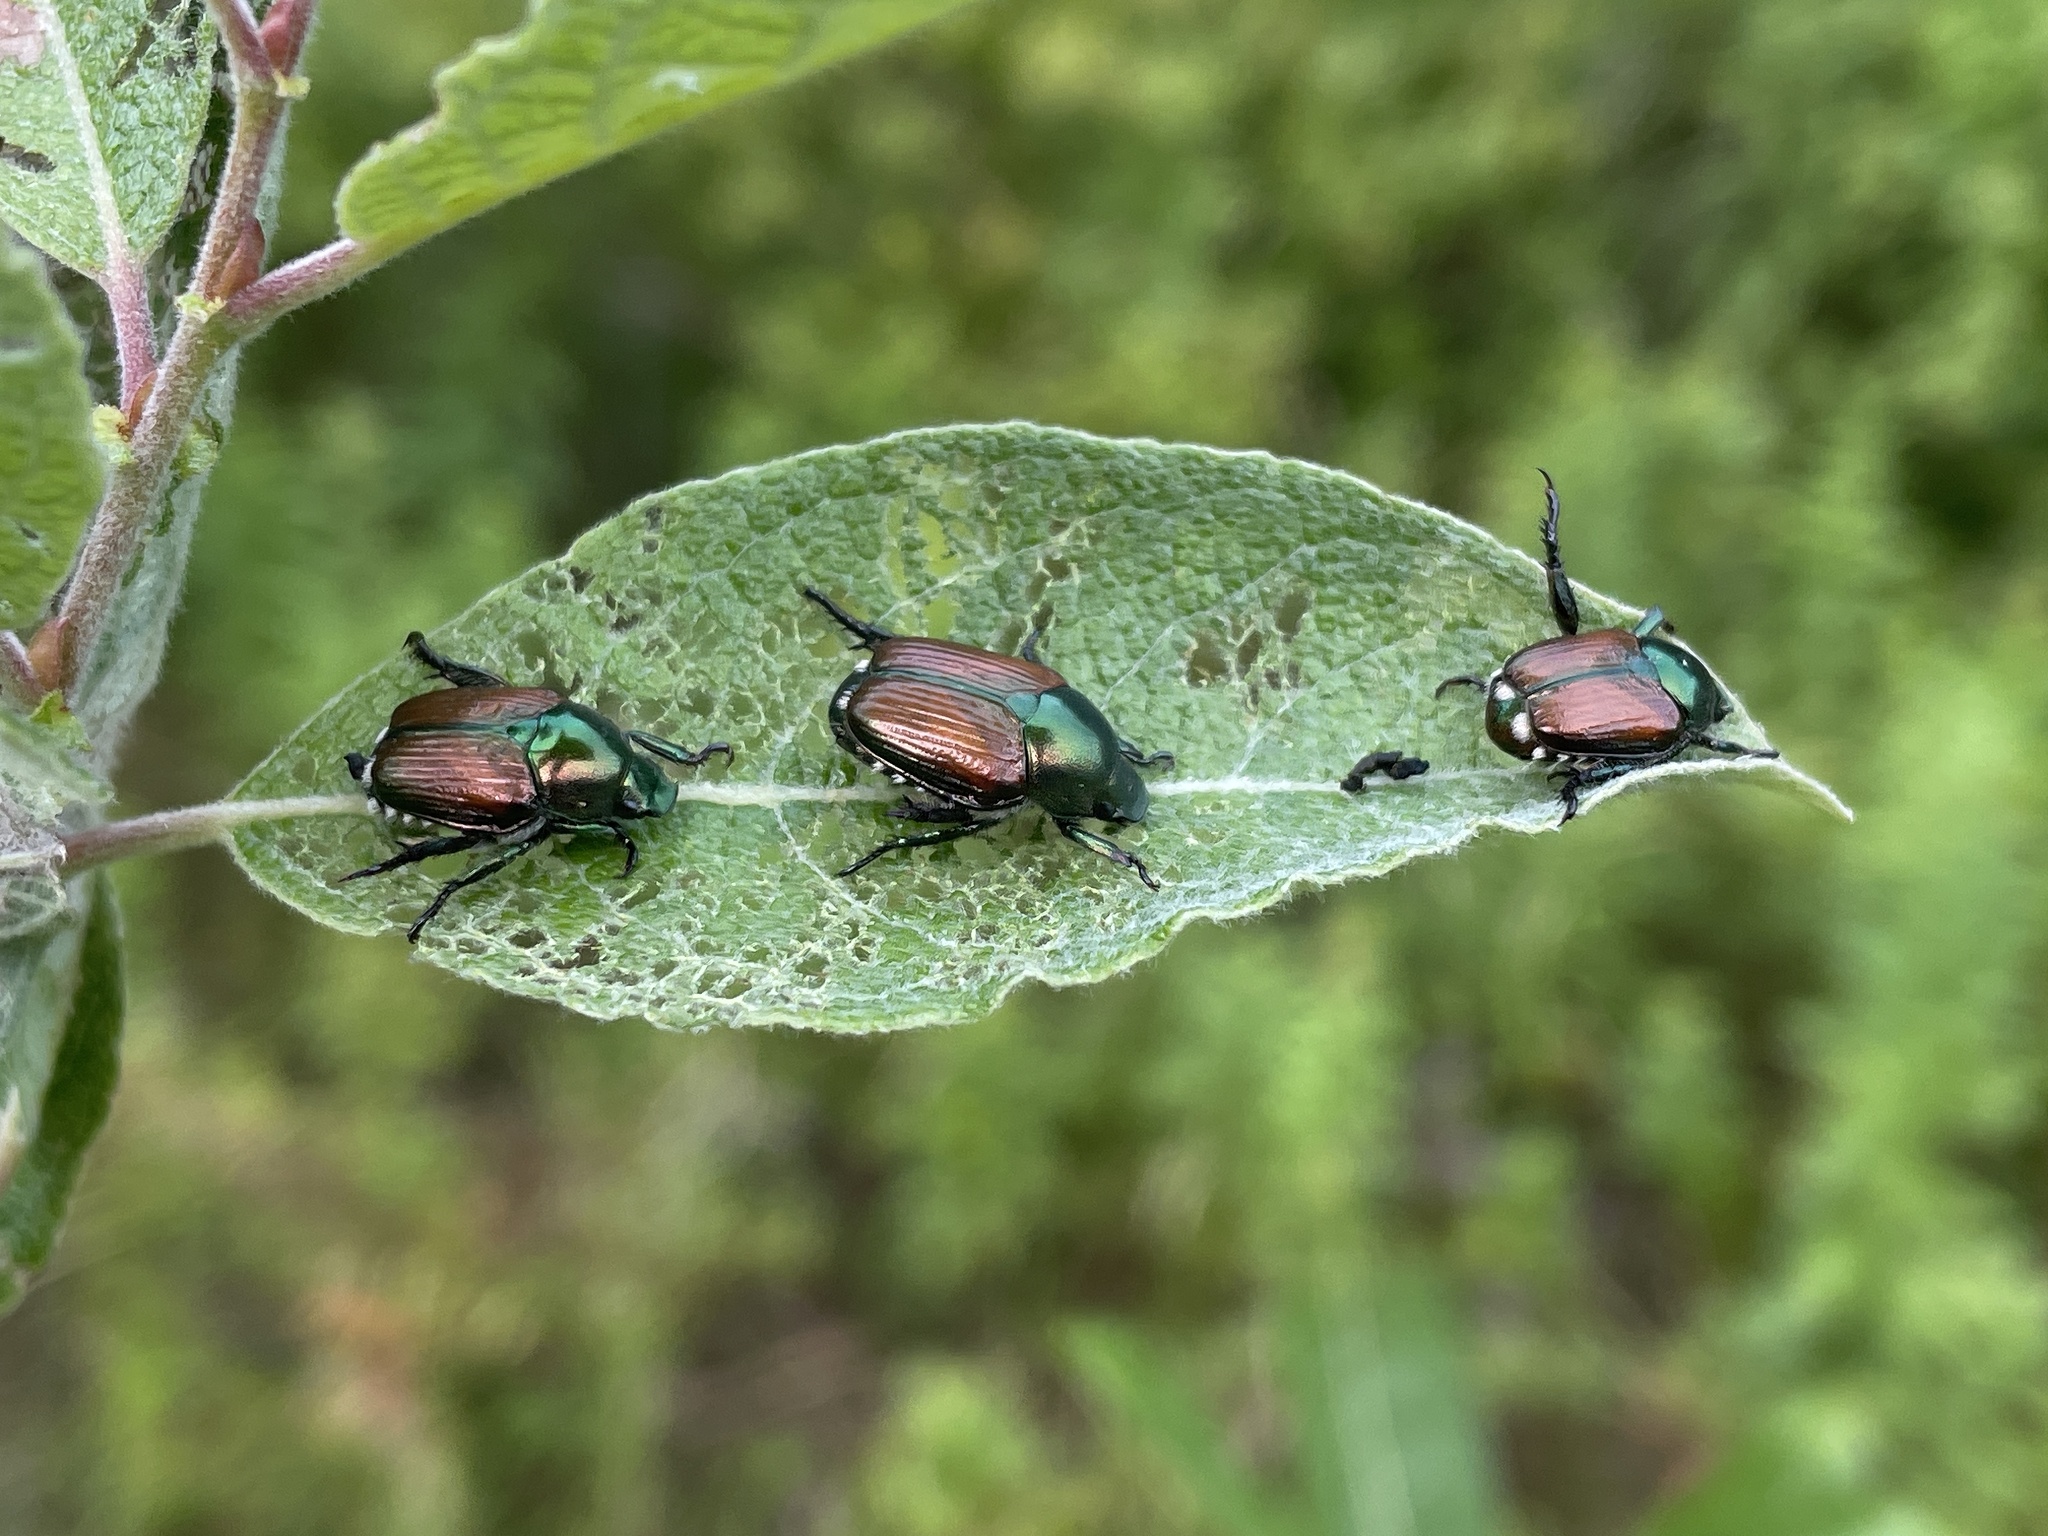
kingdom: Animalia
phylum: Arthropoda
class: Insecta
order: Coleoptera
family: Scarabaeidae
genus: Popillia
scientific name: Popillia japonica
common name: Japanese beetle
